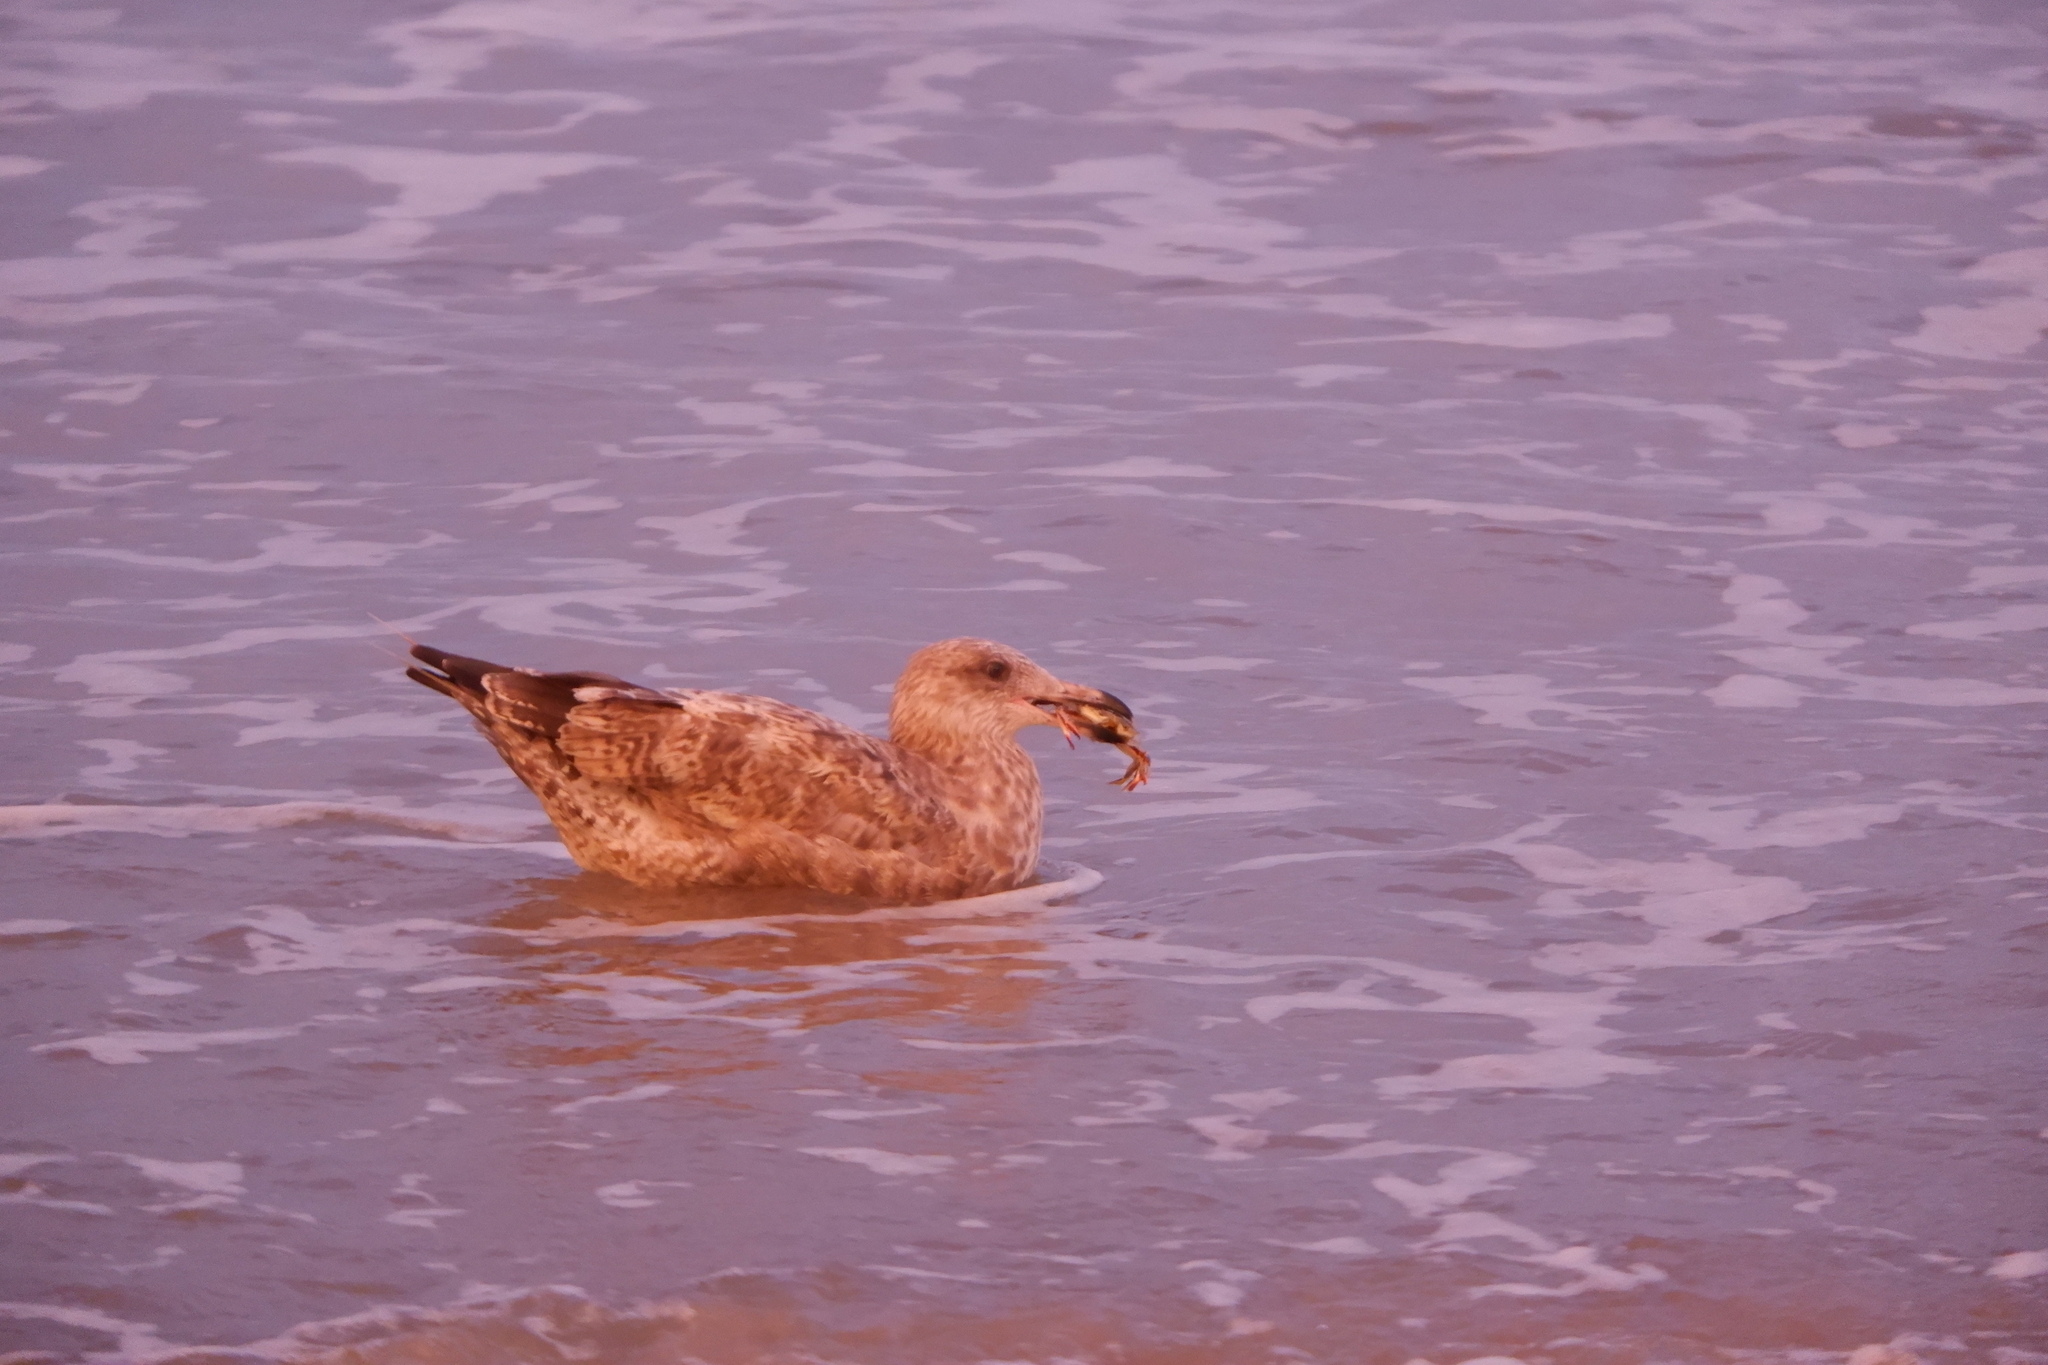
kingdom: Animalia
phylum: Arthropoda
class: Malacostraca
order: Decapoda
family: Ovalipidae
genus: Ovalipes
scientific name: Ovalipes ocellatus
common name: Lady crab
